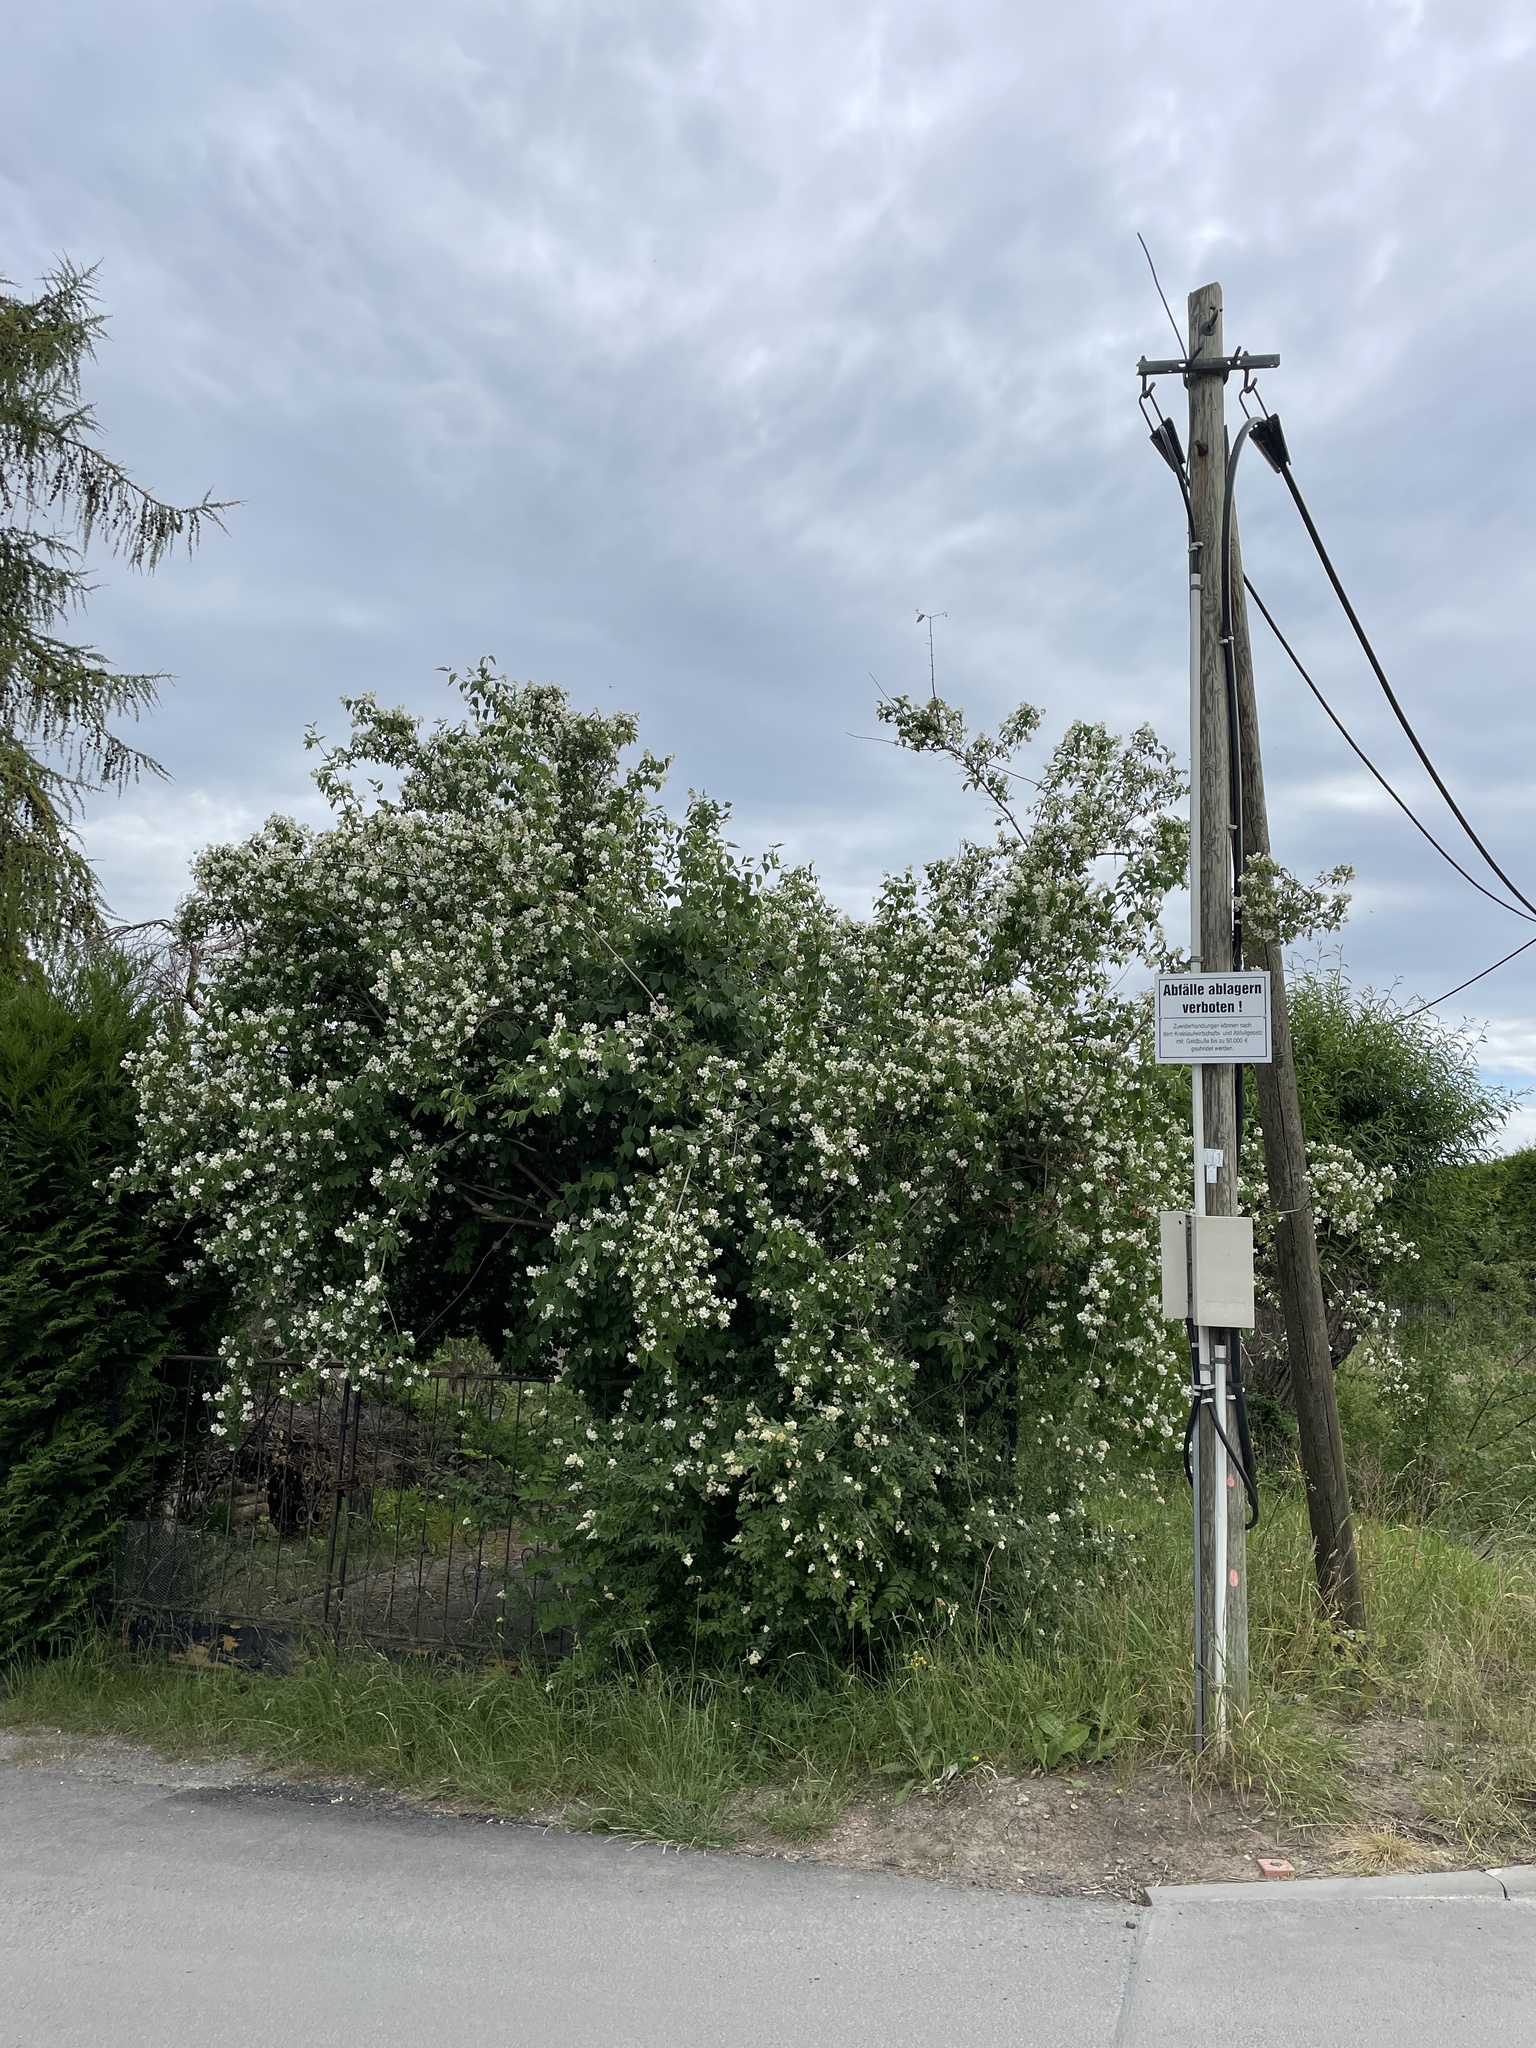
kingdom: Plantae
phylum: Tracheophyta
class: Magnoliopsida
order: Cornales
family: Hydrangeaceae
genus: Philadelphus
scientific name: Philadelphus coronarius
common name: Mock orange
